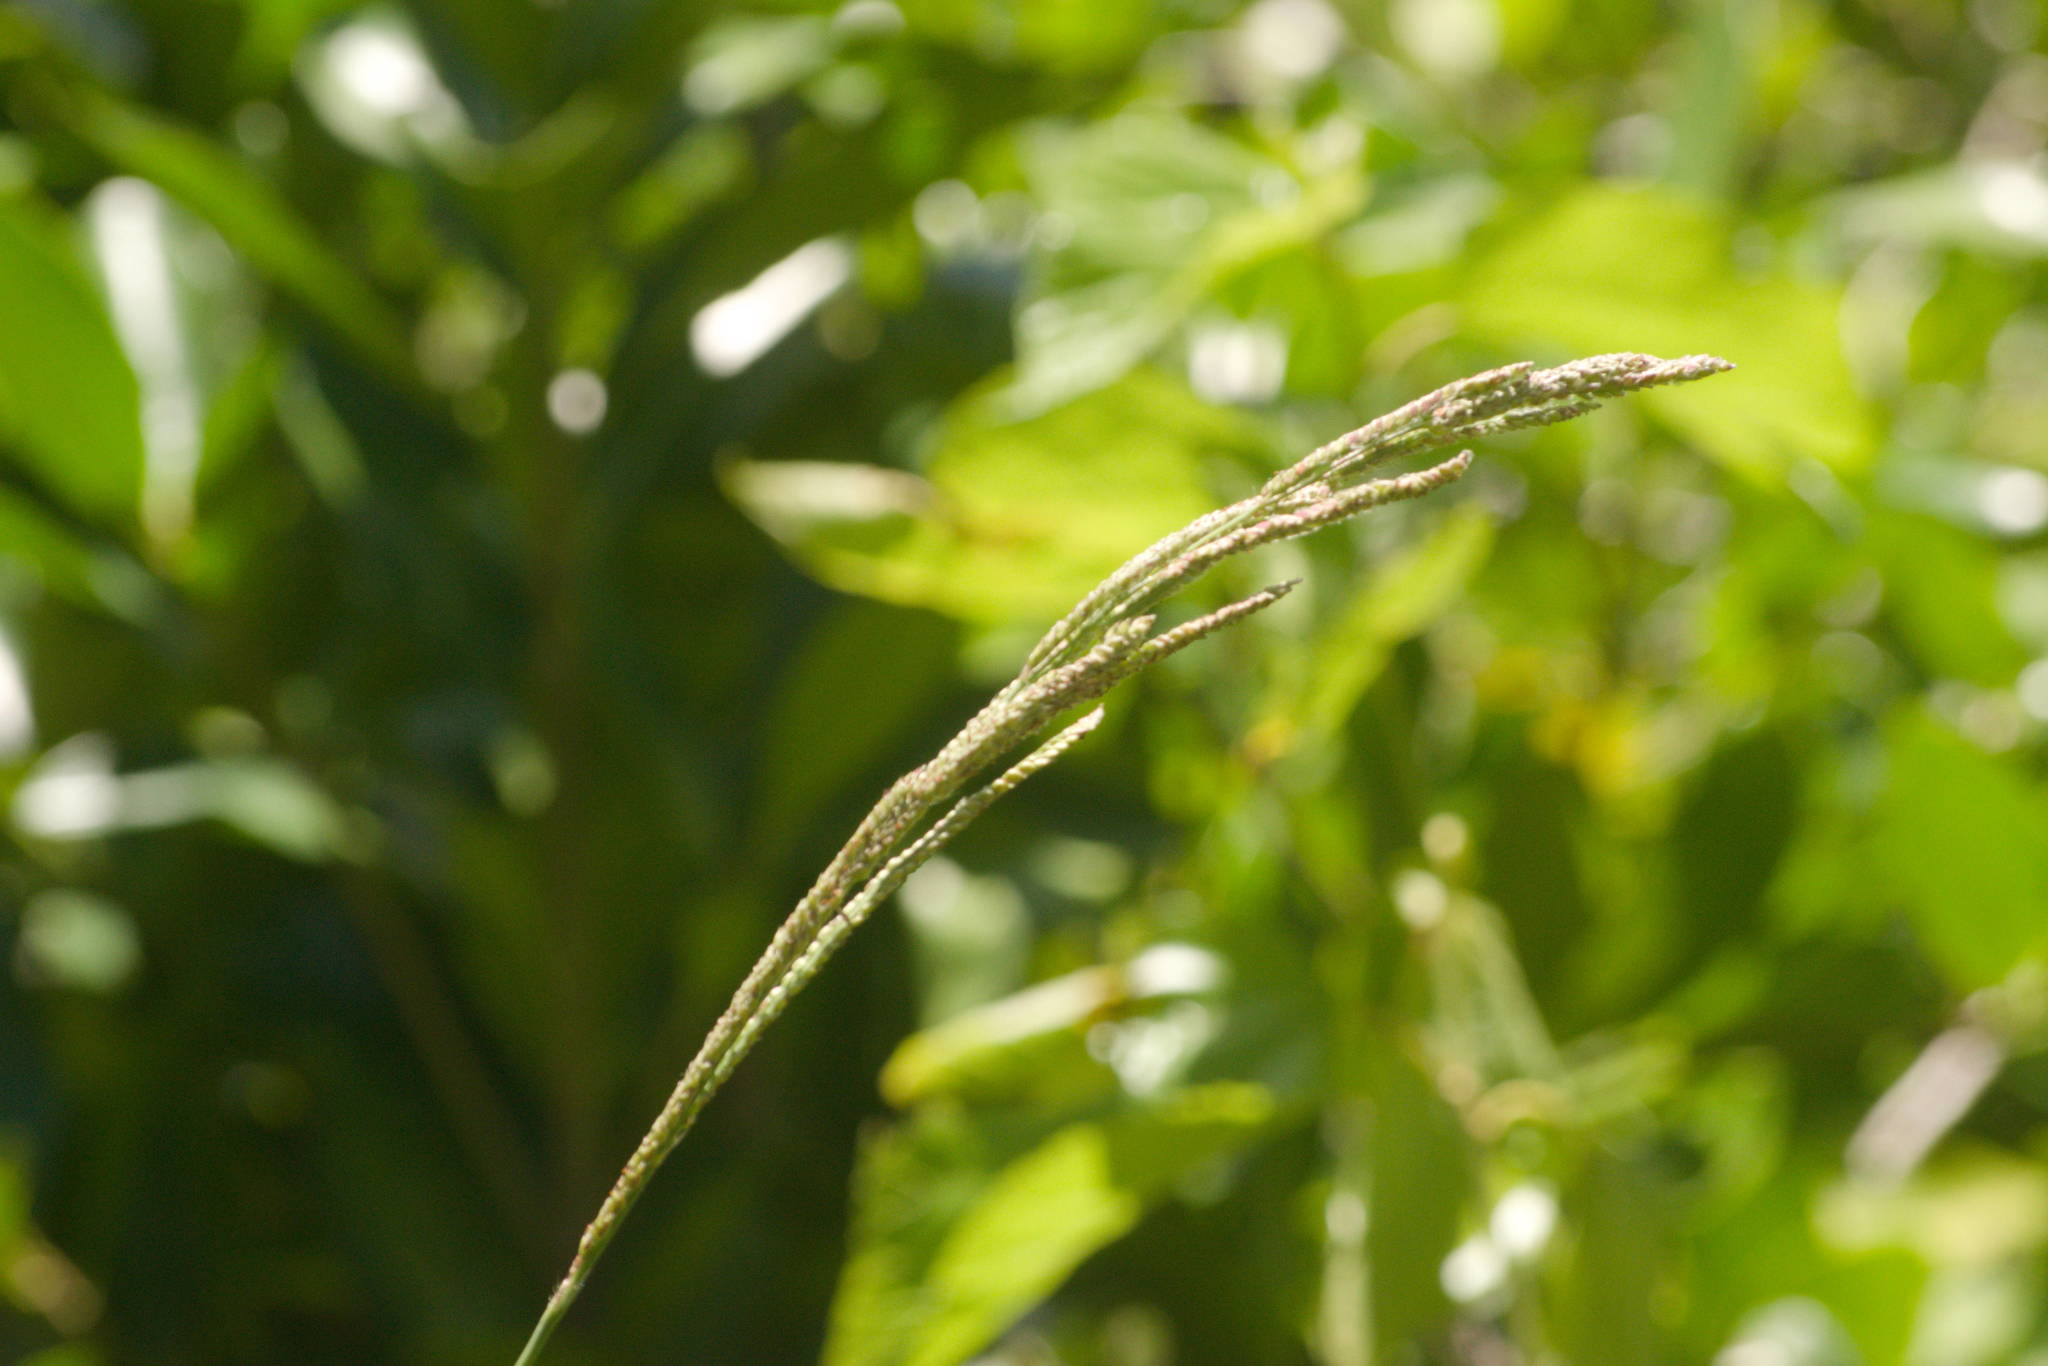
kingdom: Plantae
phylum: Tracheophyta
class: Liliopsida
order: Poales
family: Poaceae
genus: Paspalum
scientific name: Paspalum urvillei
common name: Vasey's grass
